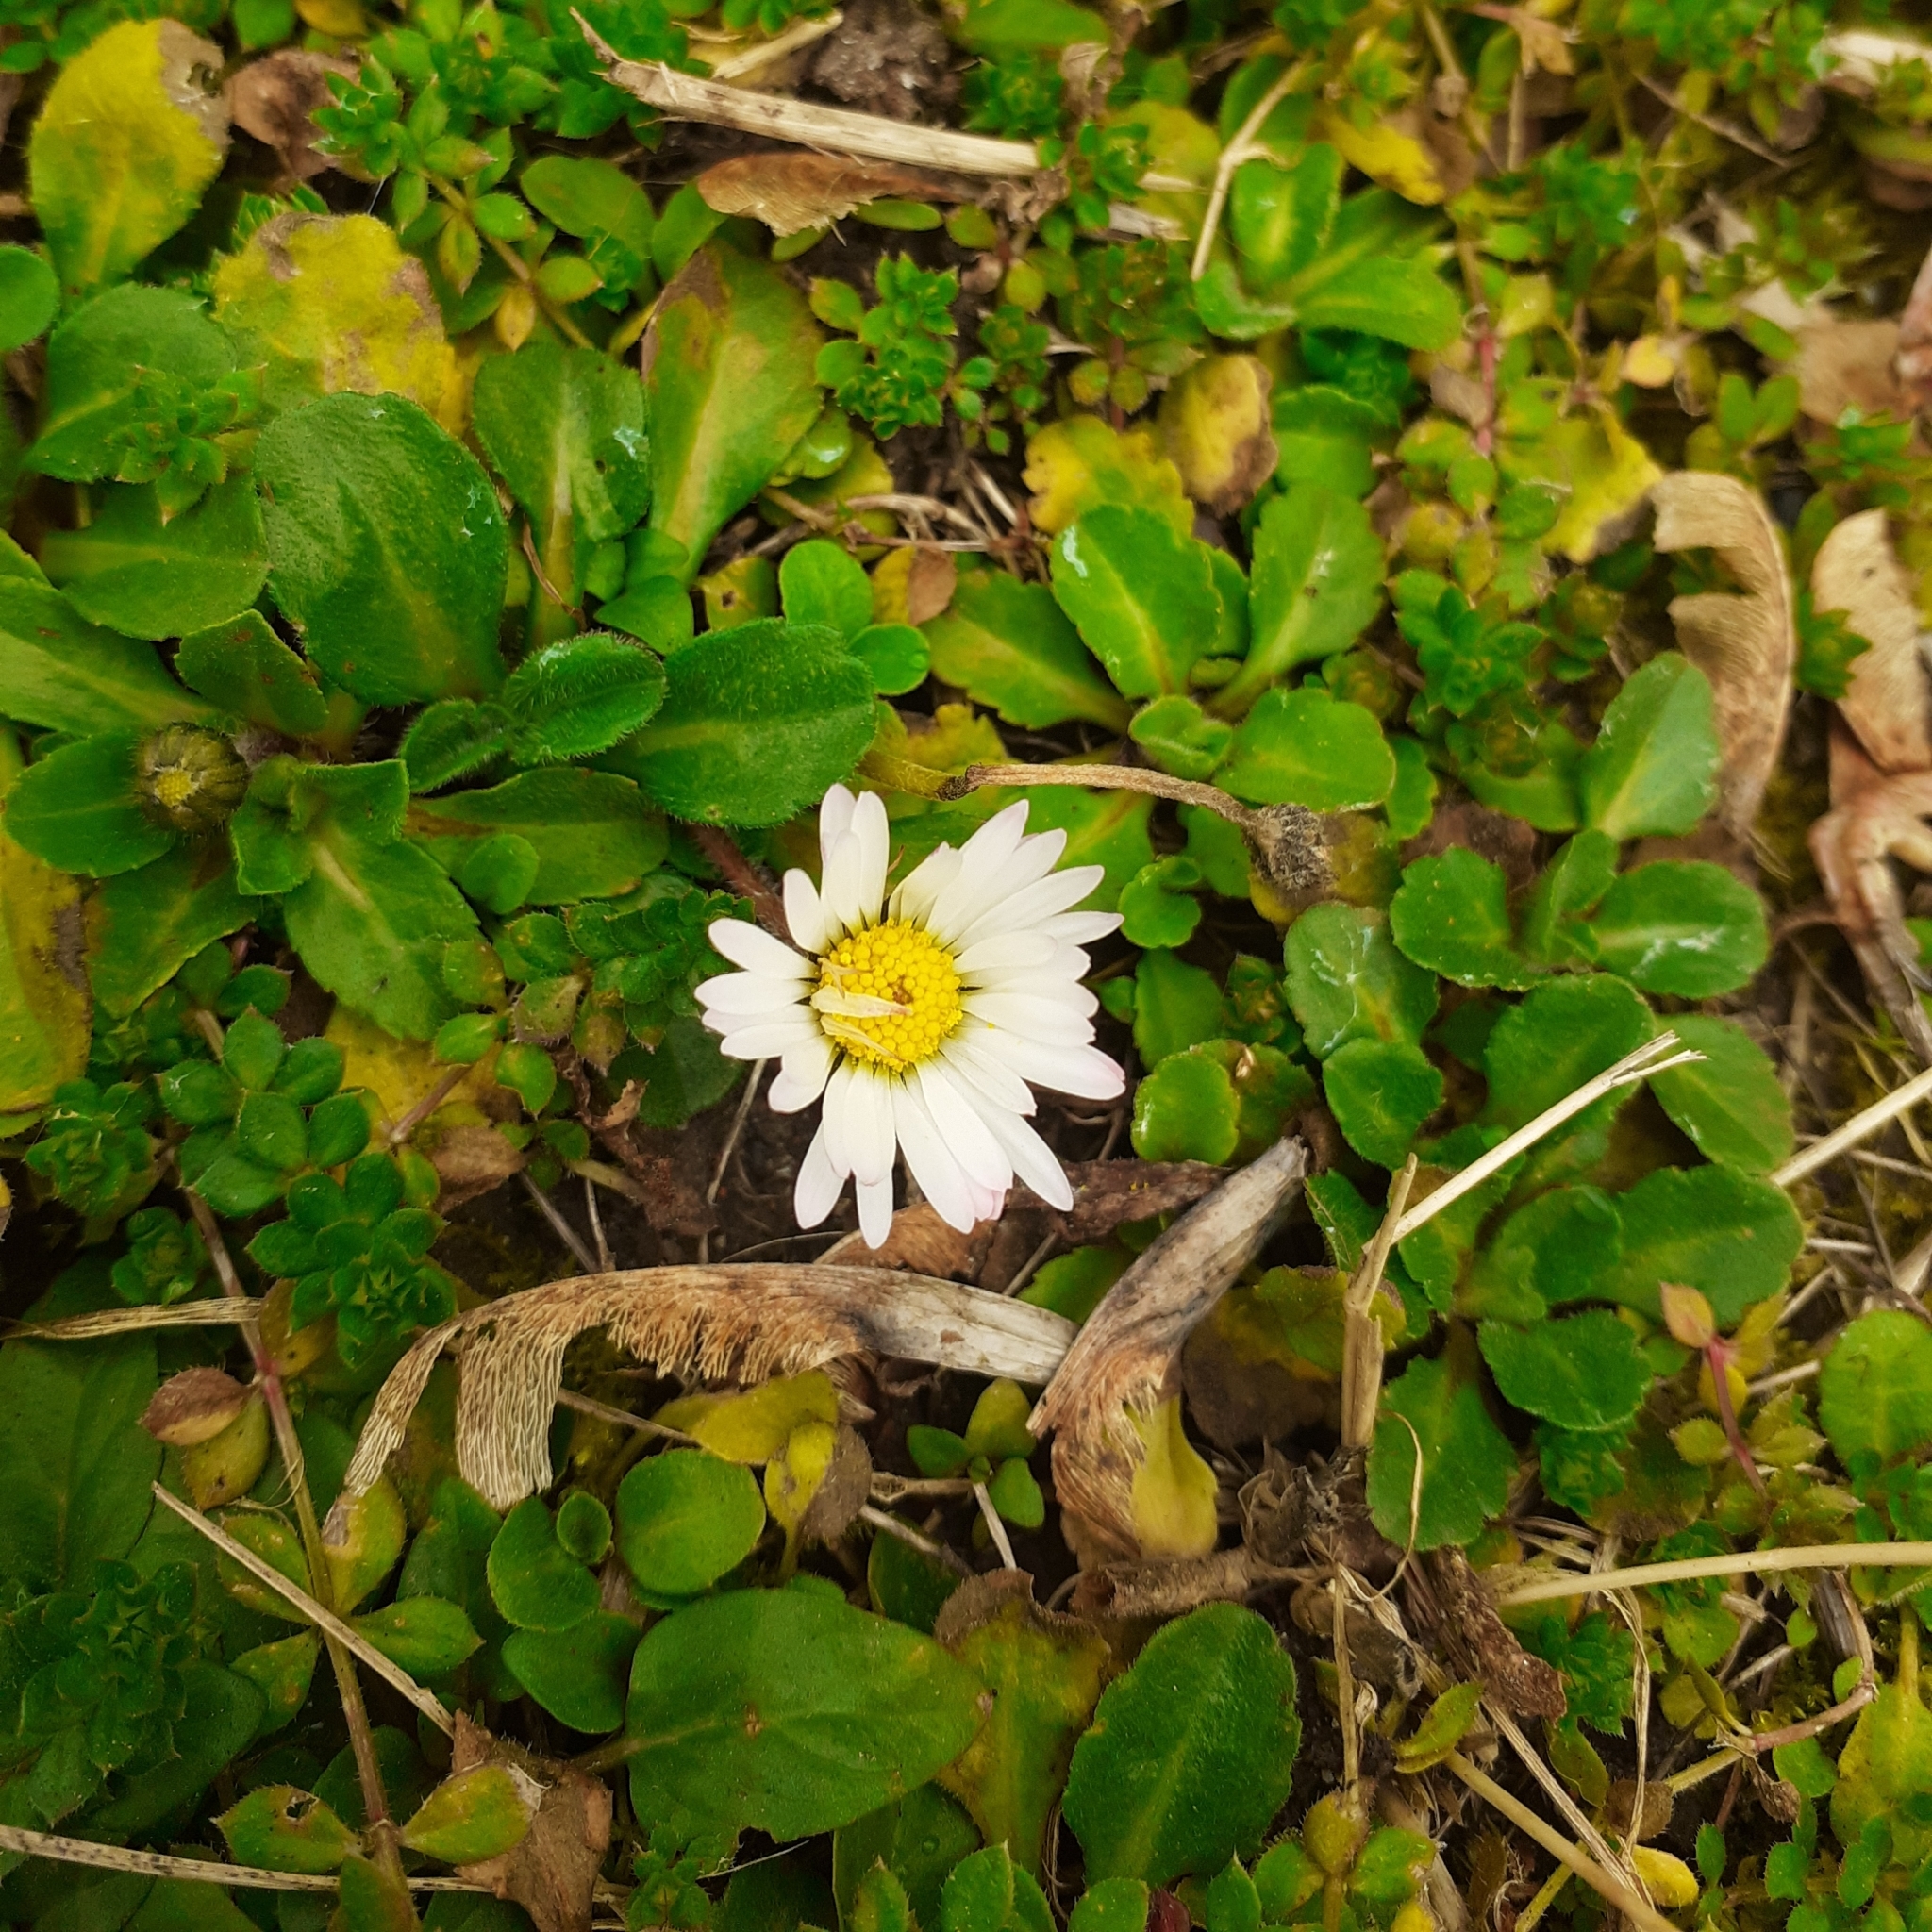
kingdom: Plantae
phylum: Tracheophyta
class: Magnoliopsida
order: Asterales
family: Asteraceae
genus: Bellis
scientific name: Bellis perennis
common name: Lawndaisy
